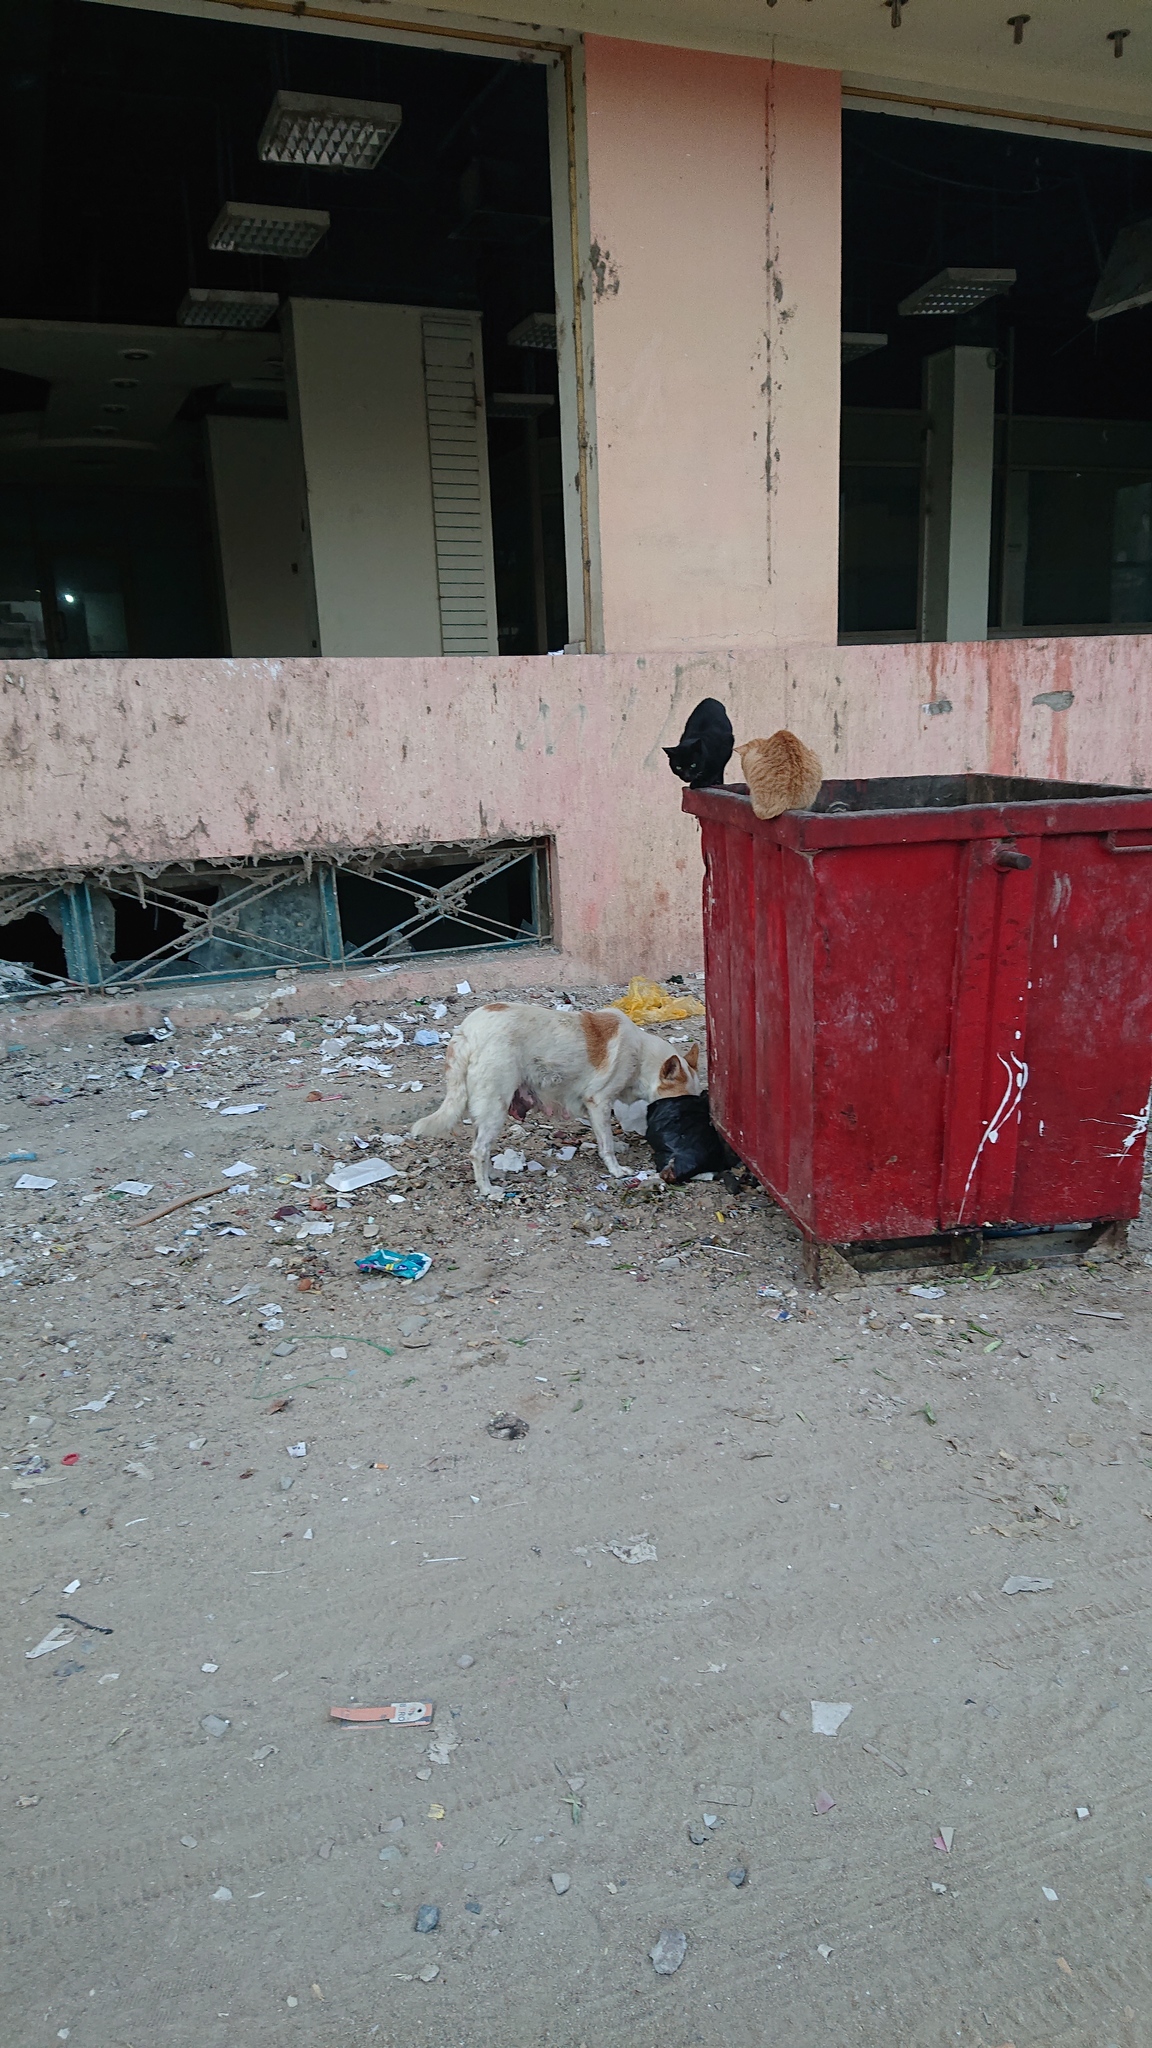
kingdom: Animalia
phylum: Chordata
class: Mammalia
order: Carnivora
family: Canidae
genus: Canis
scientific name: Canis lupus
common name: Gray wolf
